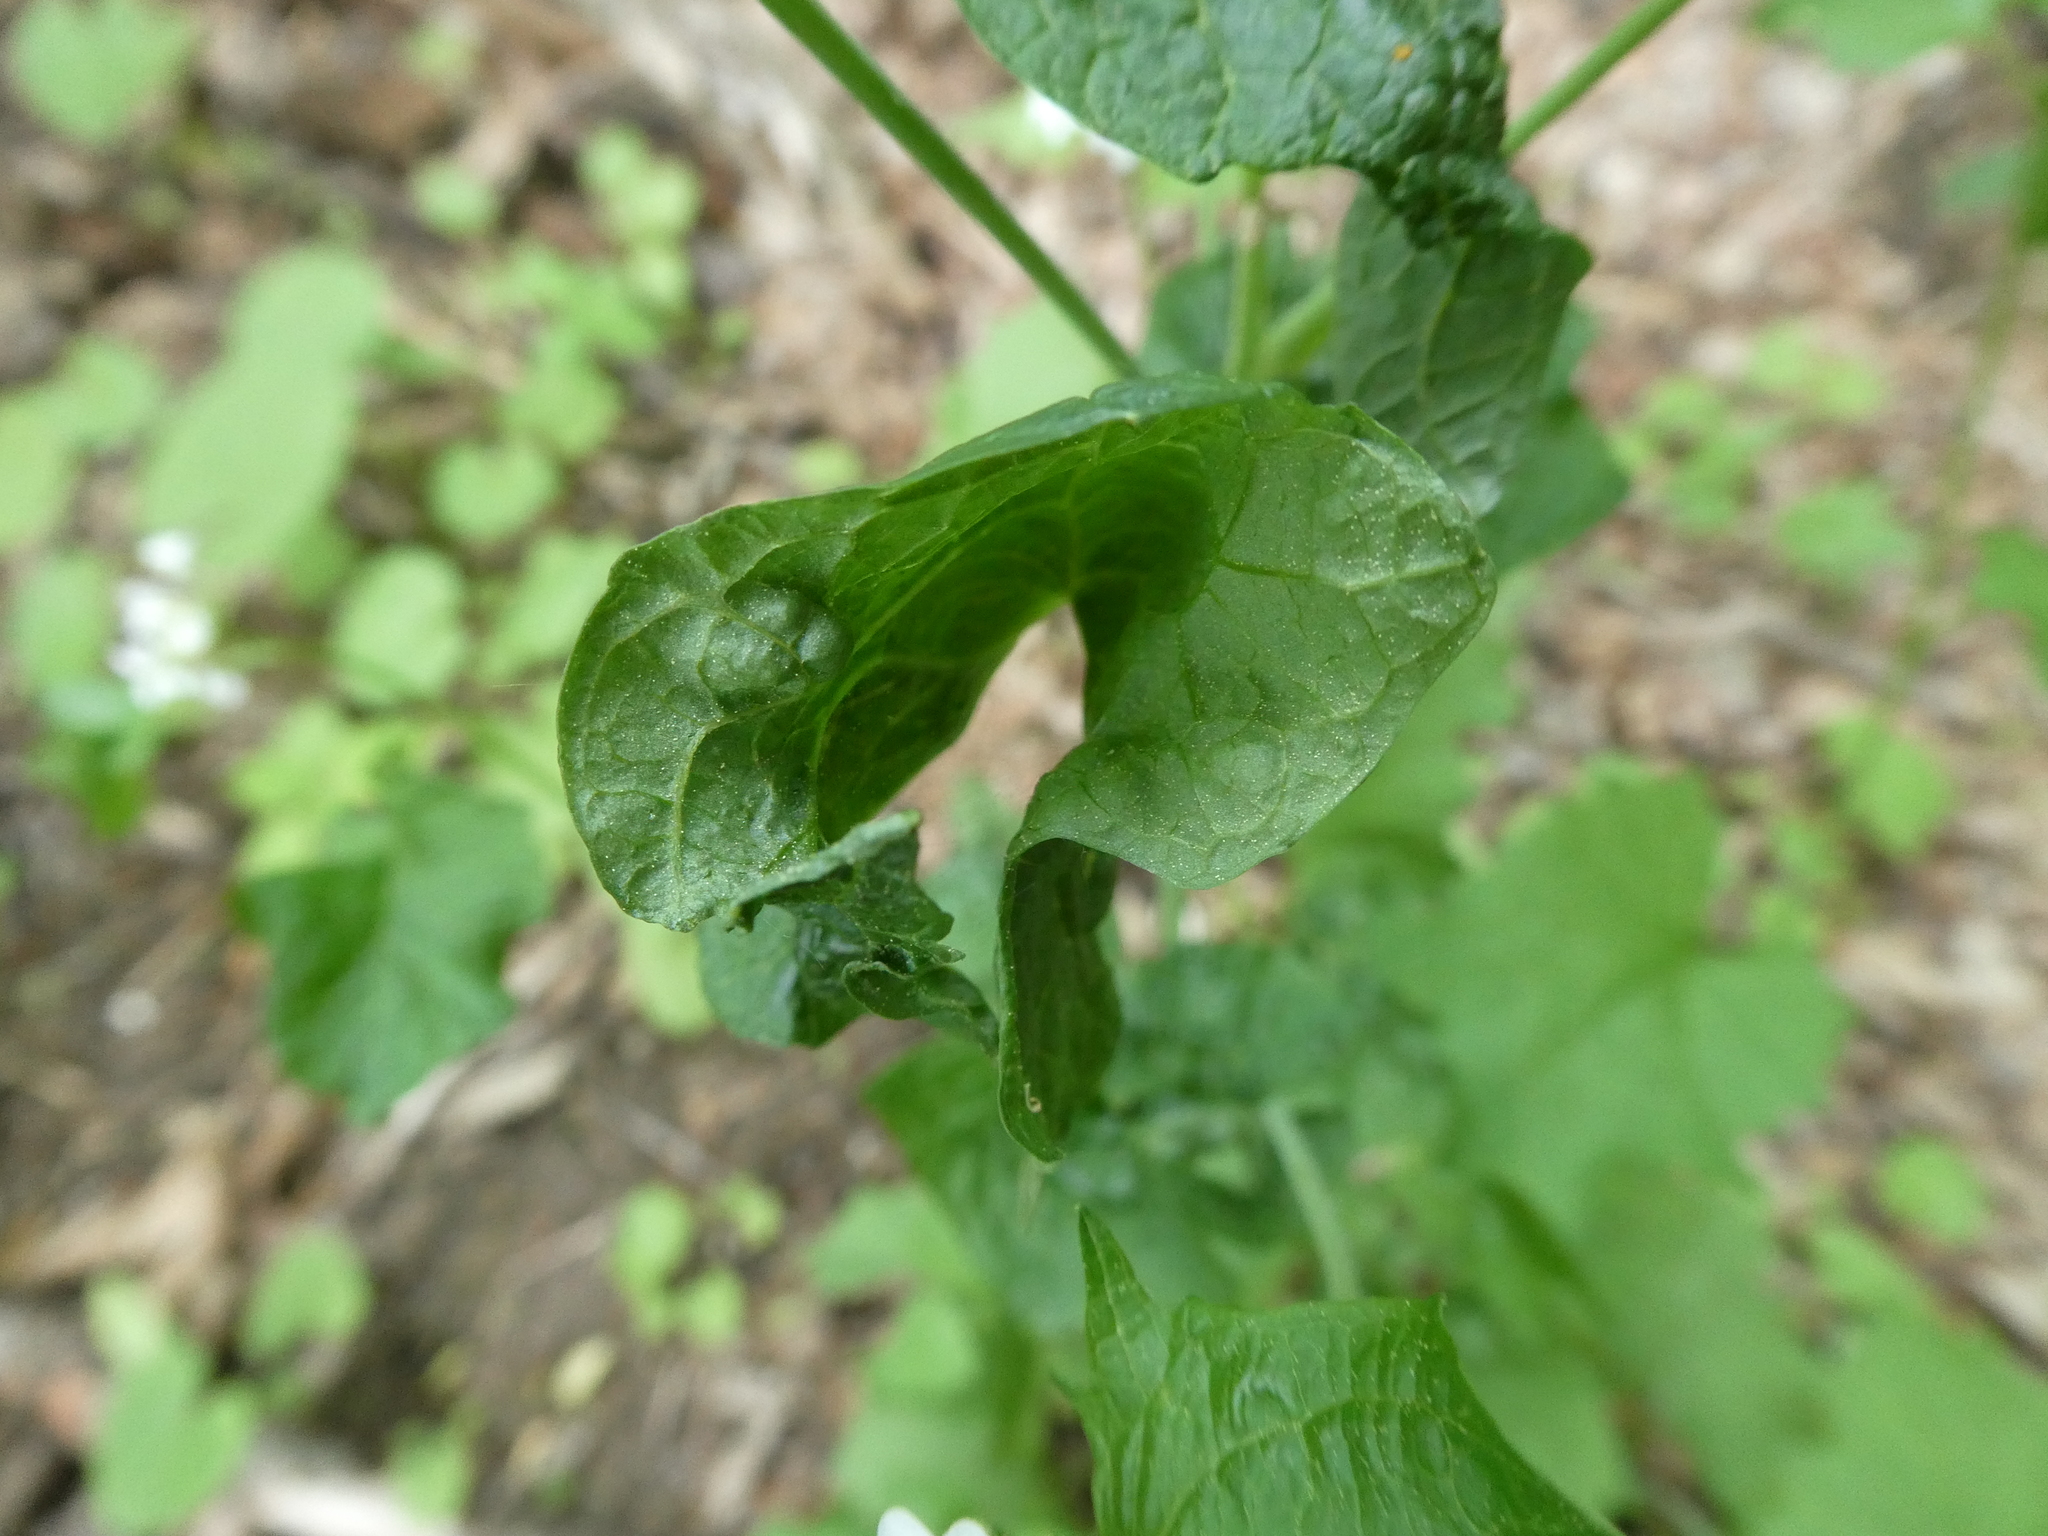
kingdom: Plantae
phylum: Tracheophyta
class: Magnoliopsida
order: Brassicales
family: Brassicaceae
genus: Alliaria
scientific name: Alliaria petiolata
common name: Garlic mustard
